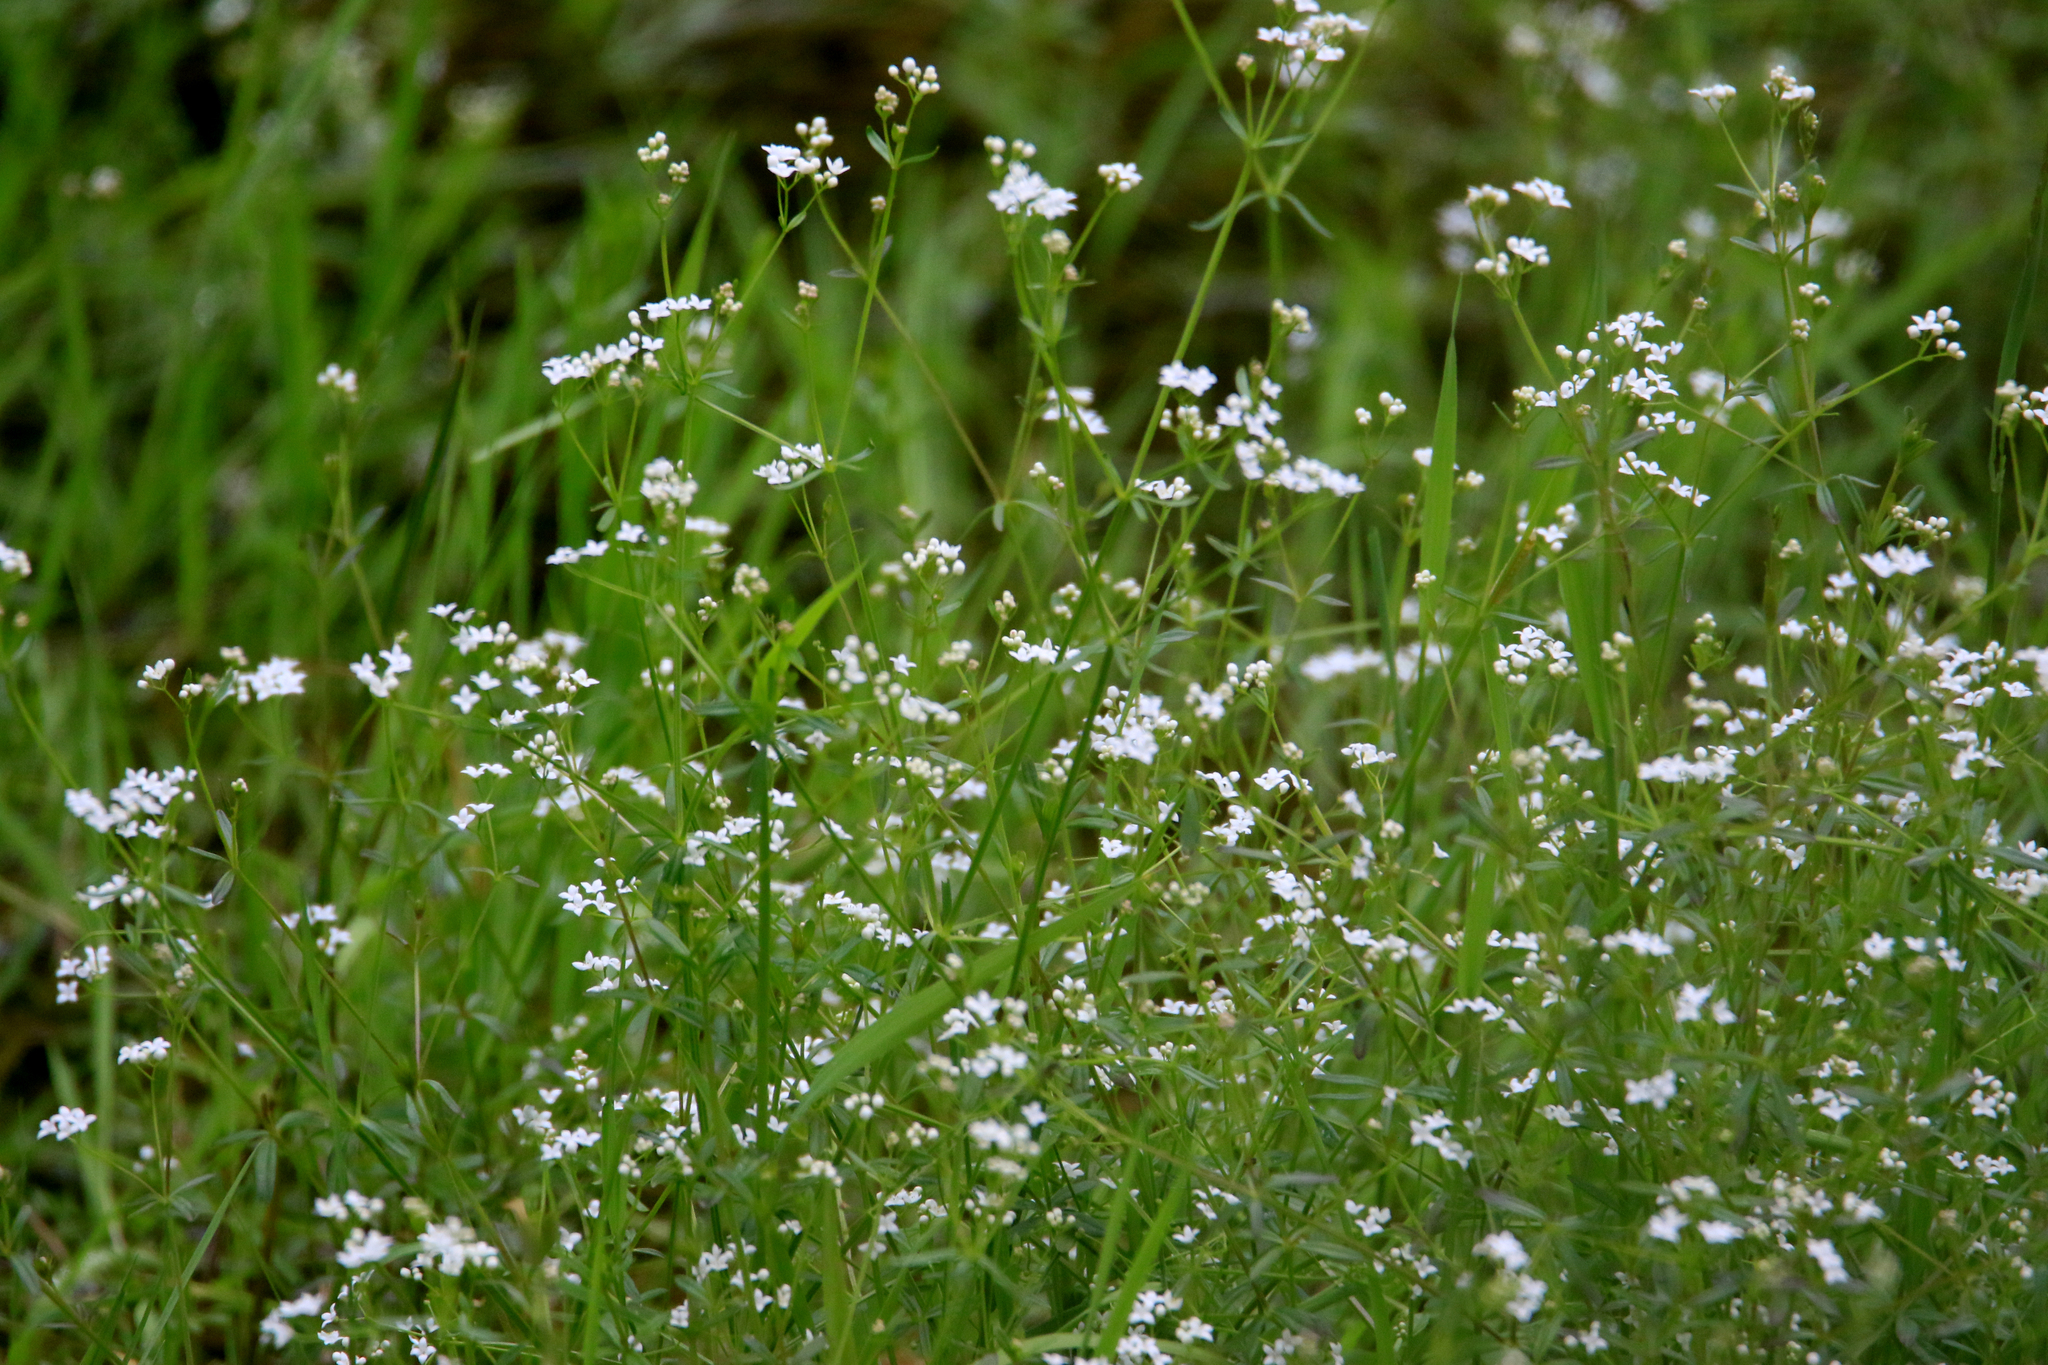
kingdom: Plantae
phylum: Tracheophyta
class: Magnoliopsida
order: Gentianales
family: Rubiaceae
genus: Galium
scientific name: Galium palustre
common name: Common marsh-bedstraw
